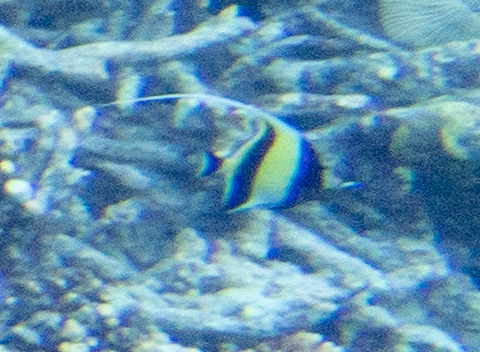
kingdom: Animalia
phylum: Chordata
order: Perciformes
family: Zanclidae
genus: Zanclus
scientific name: Zanclus cornutus
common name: Moorish idol
